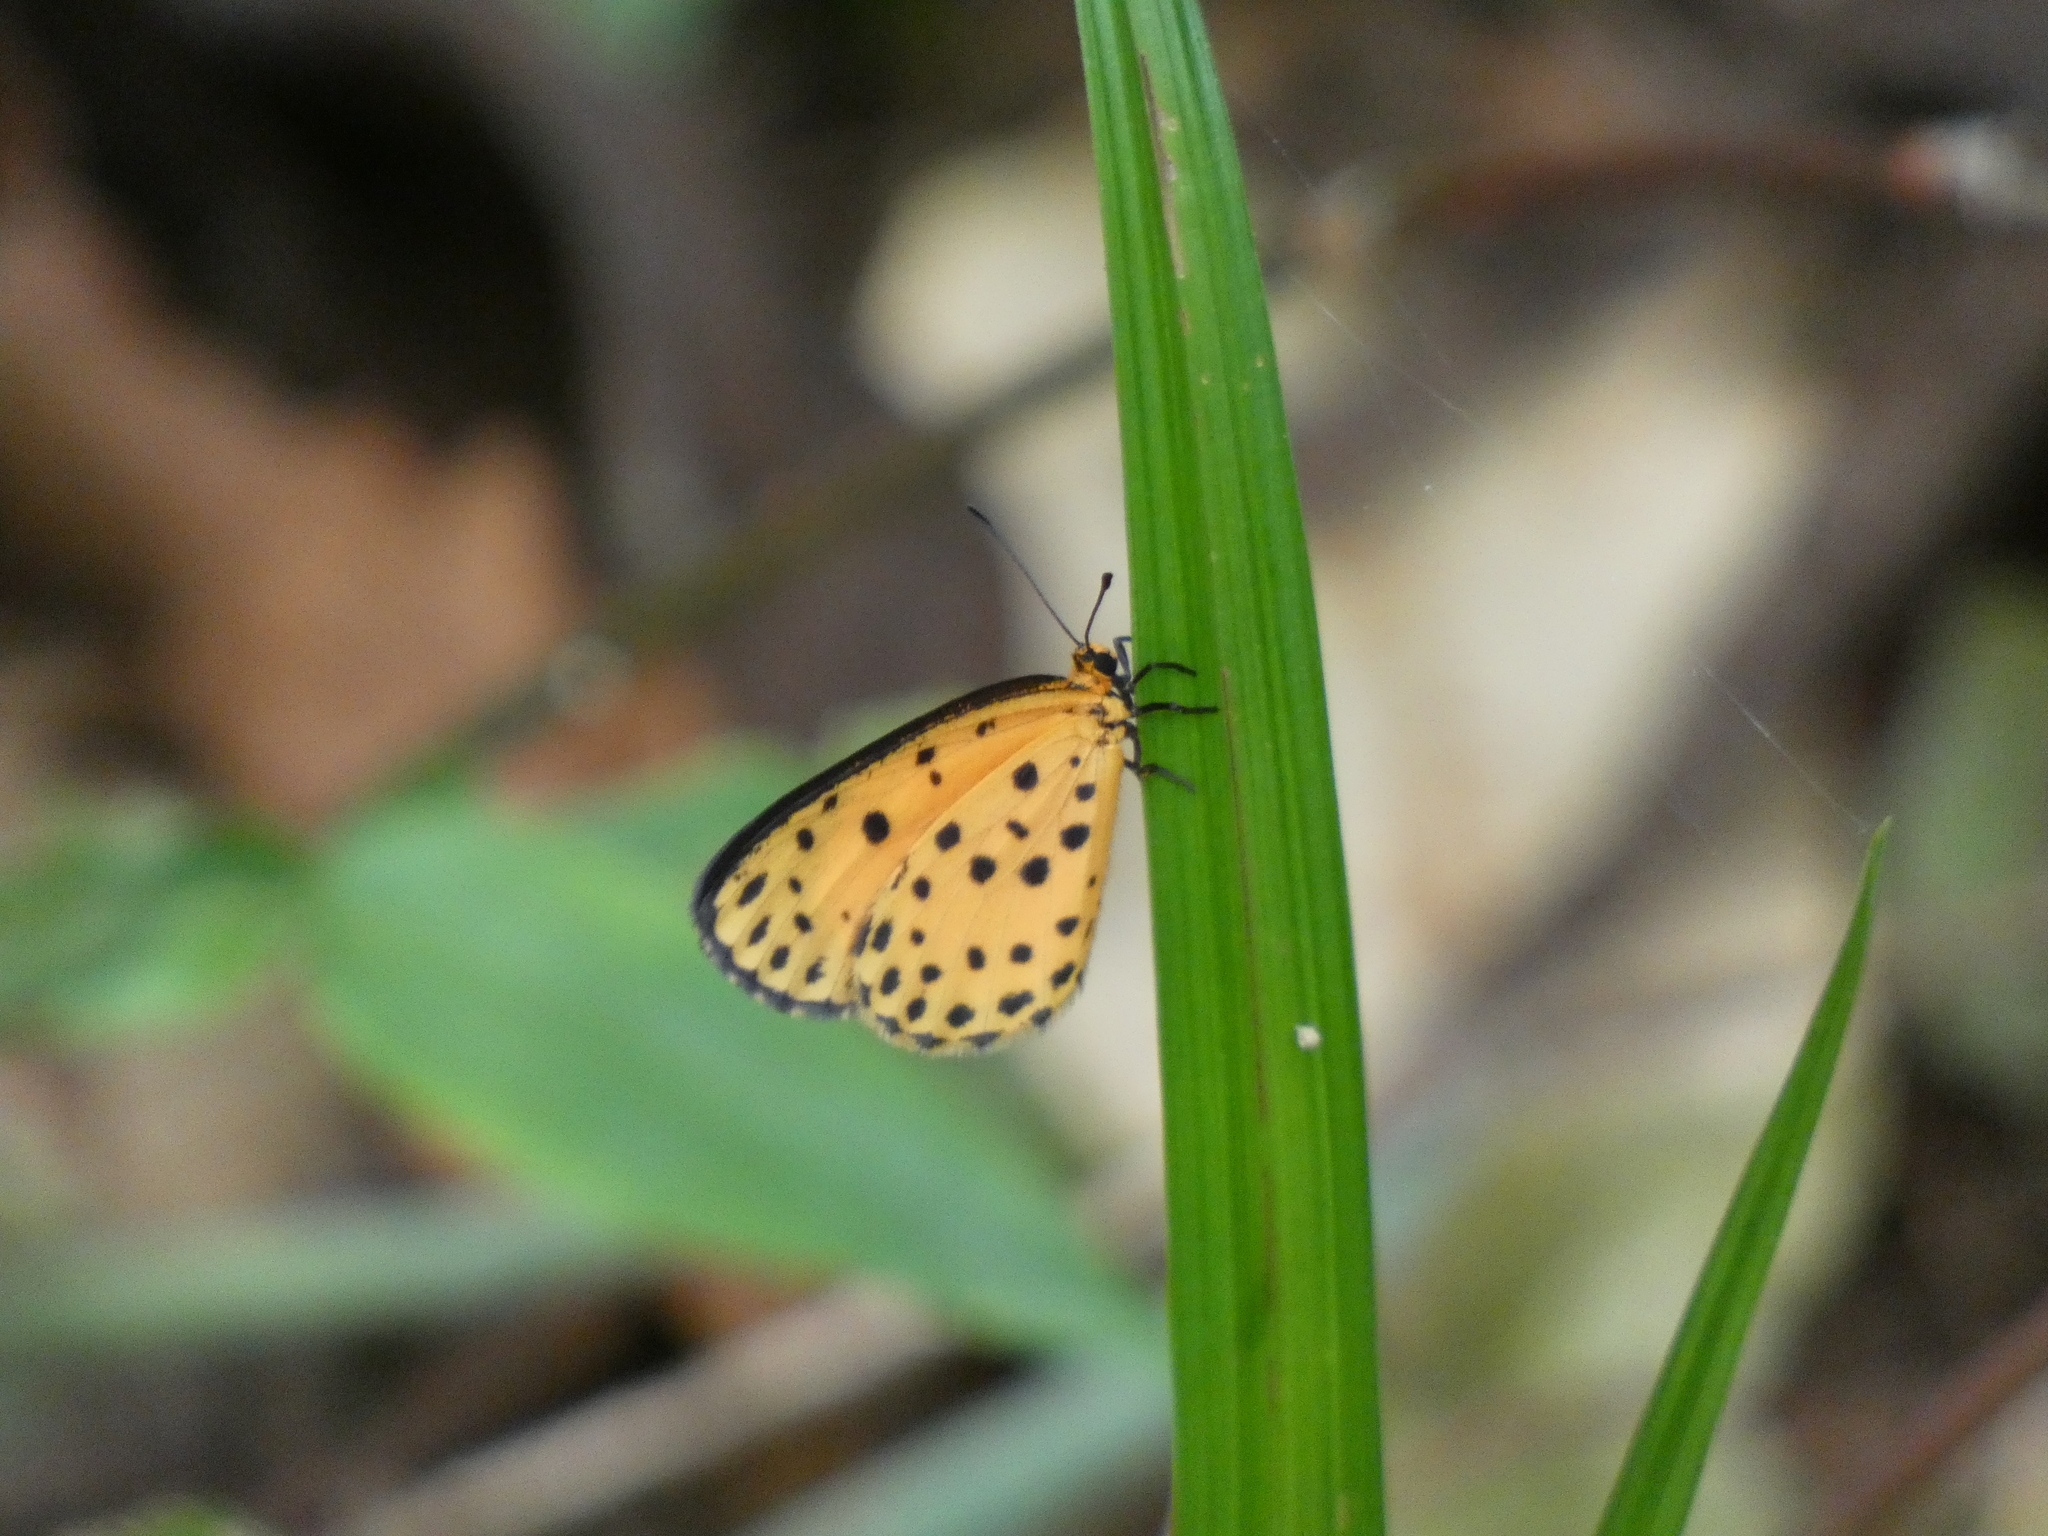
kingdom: Animalia
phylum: Arthropoda
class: Insecta
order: Lepidoptera
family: Lycaenidae
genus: Pentila
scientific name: Pentila pauli
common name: Paul's pentila
